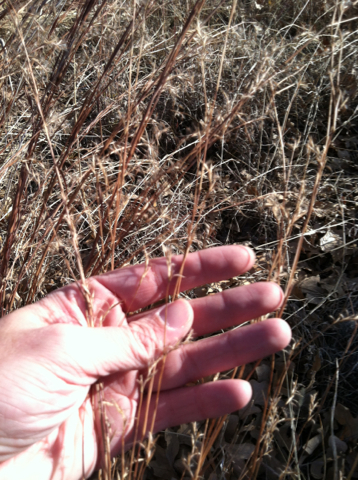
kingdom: Plantae
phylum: Tracheophyta
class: Liliopsida
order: Poales
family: Poaceae
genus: Schizachyrium
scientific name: Schizachyrium scoparium
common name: Little bluestem
